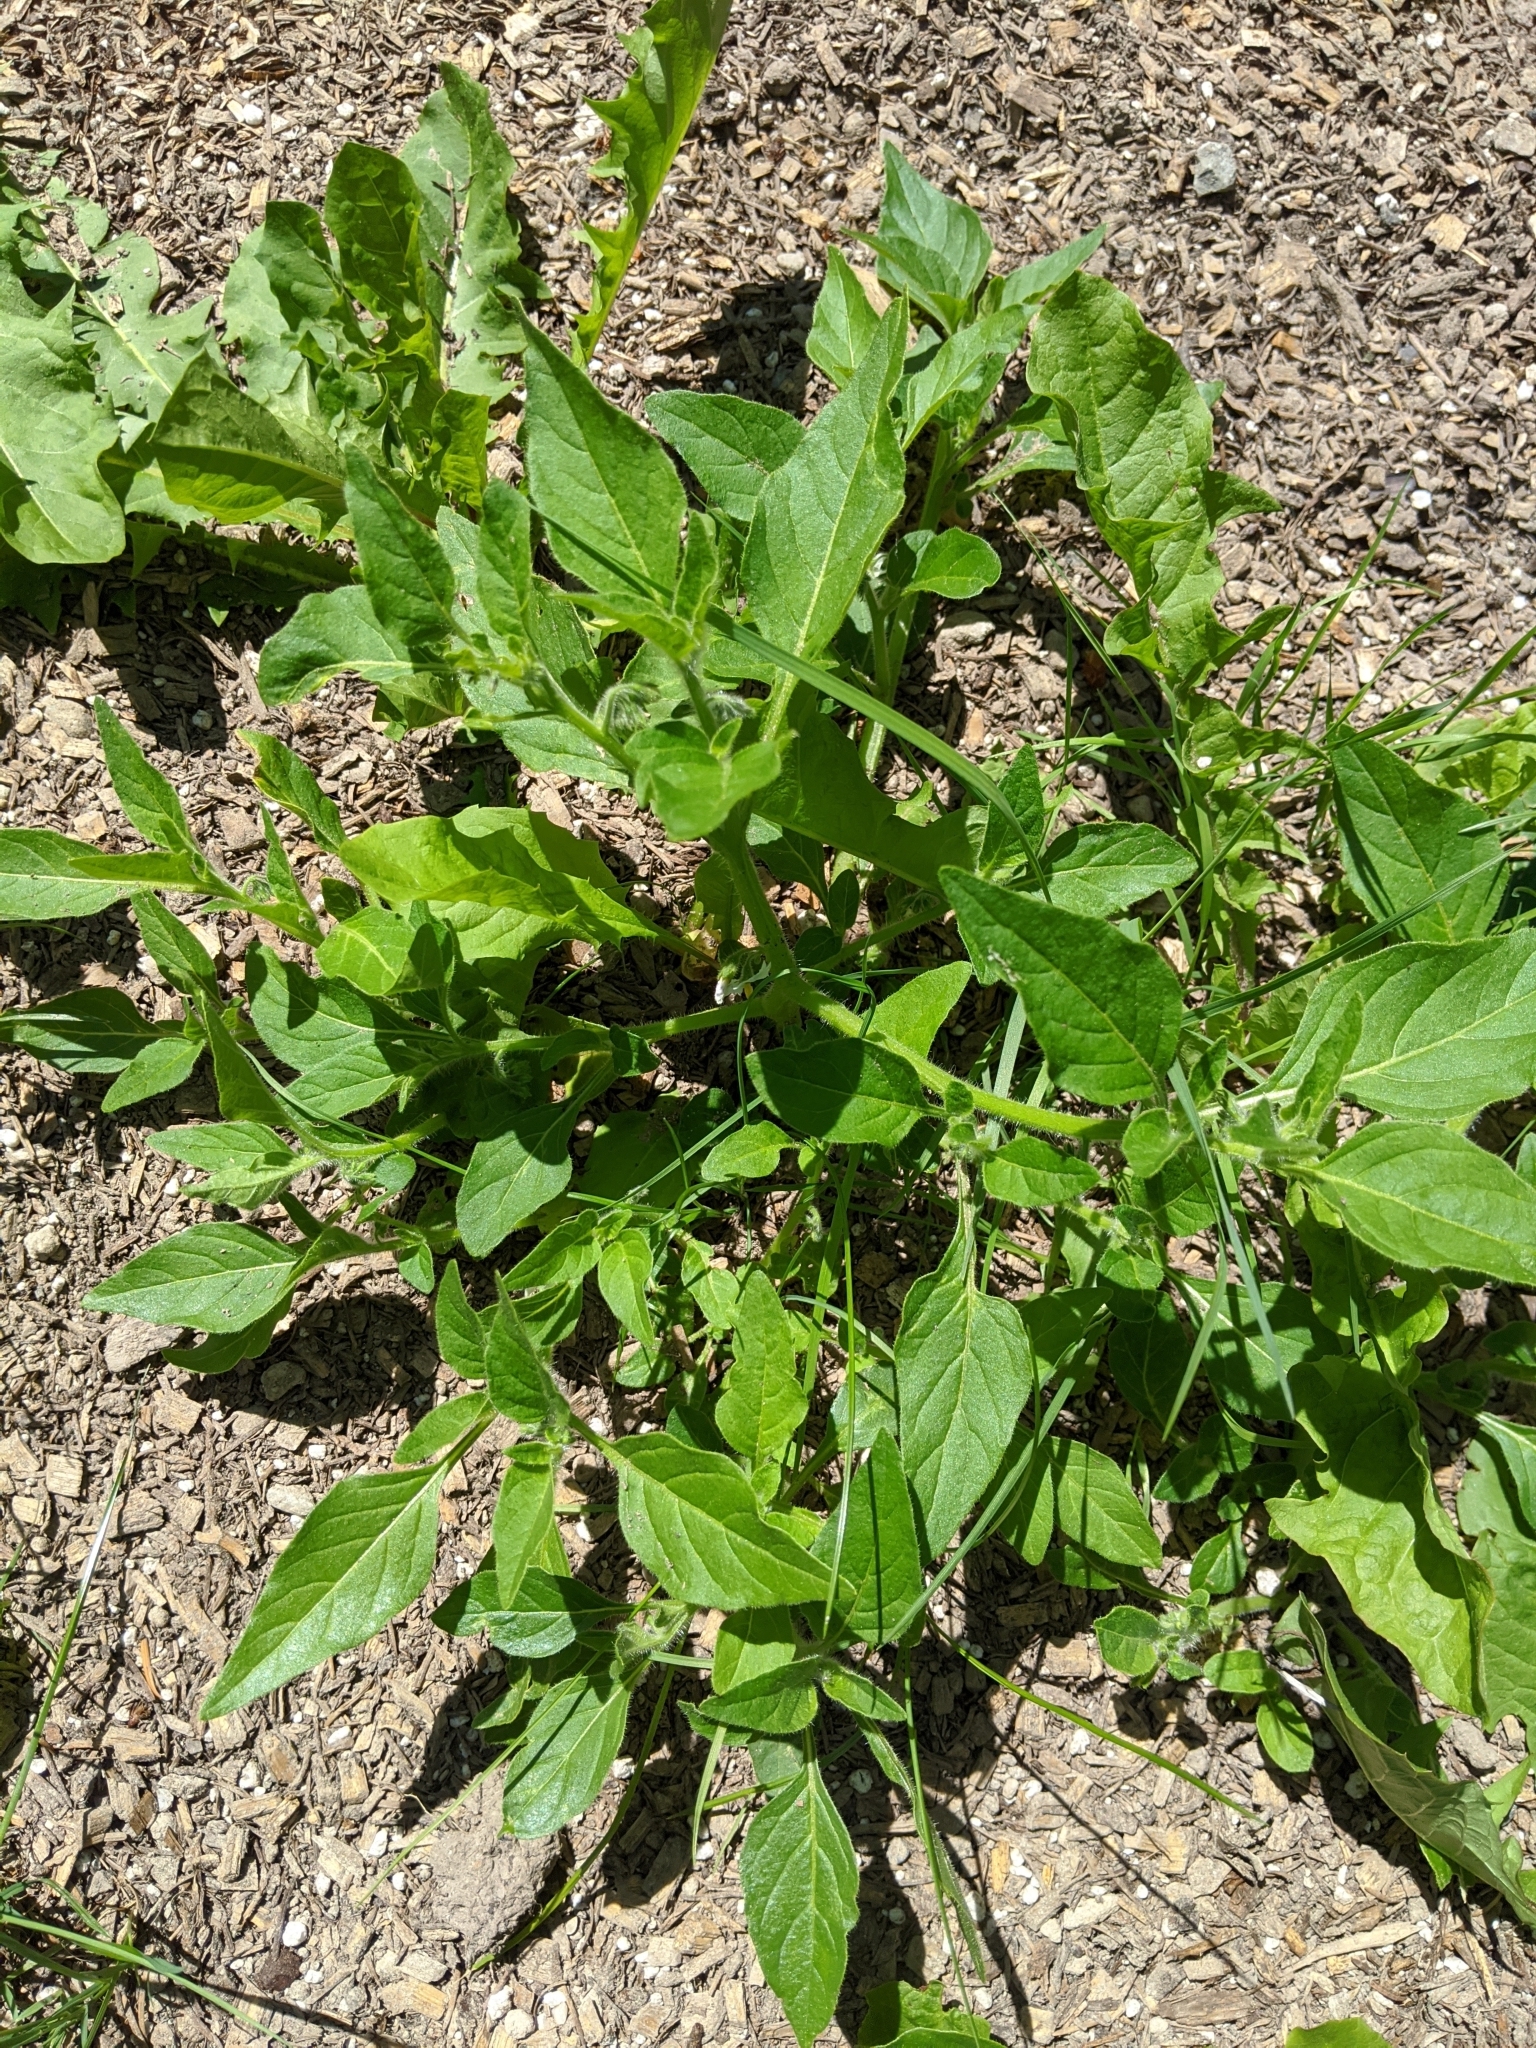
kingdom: Plantae
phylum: Tracheophyta
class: Magnoliopsida
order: Solanales
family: Solanaceae
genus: Solanum
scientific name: Solanum nitidibaccatum
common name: Hairy nightshade
